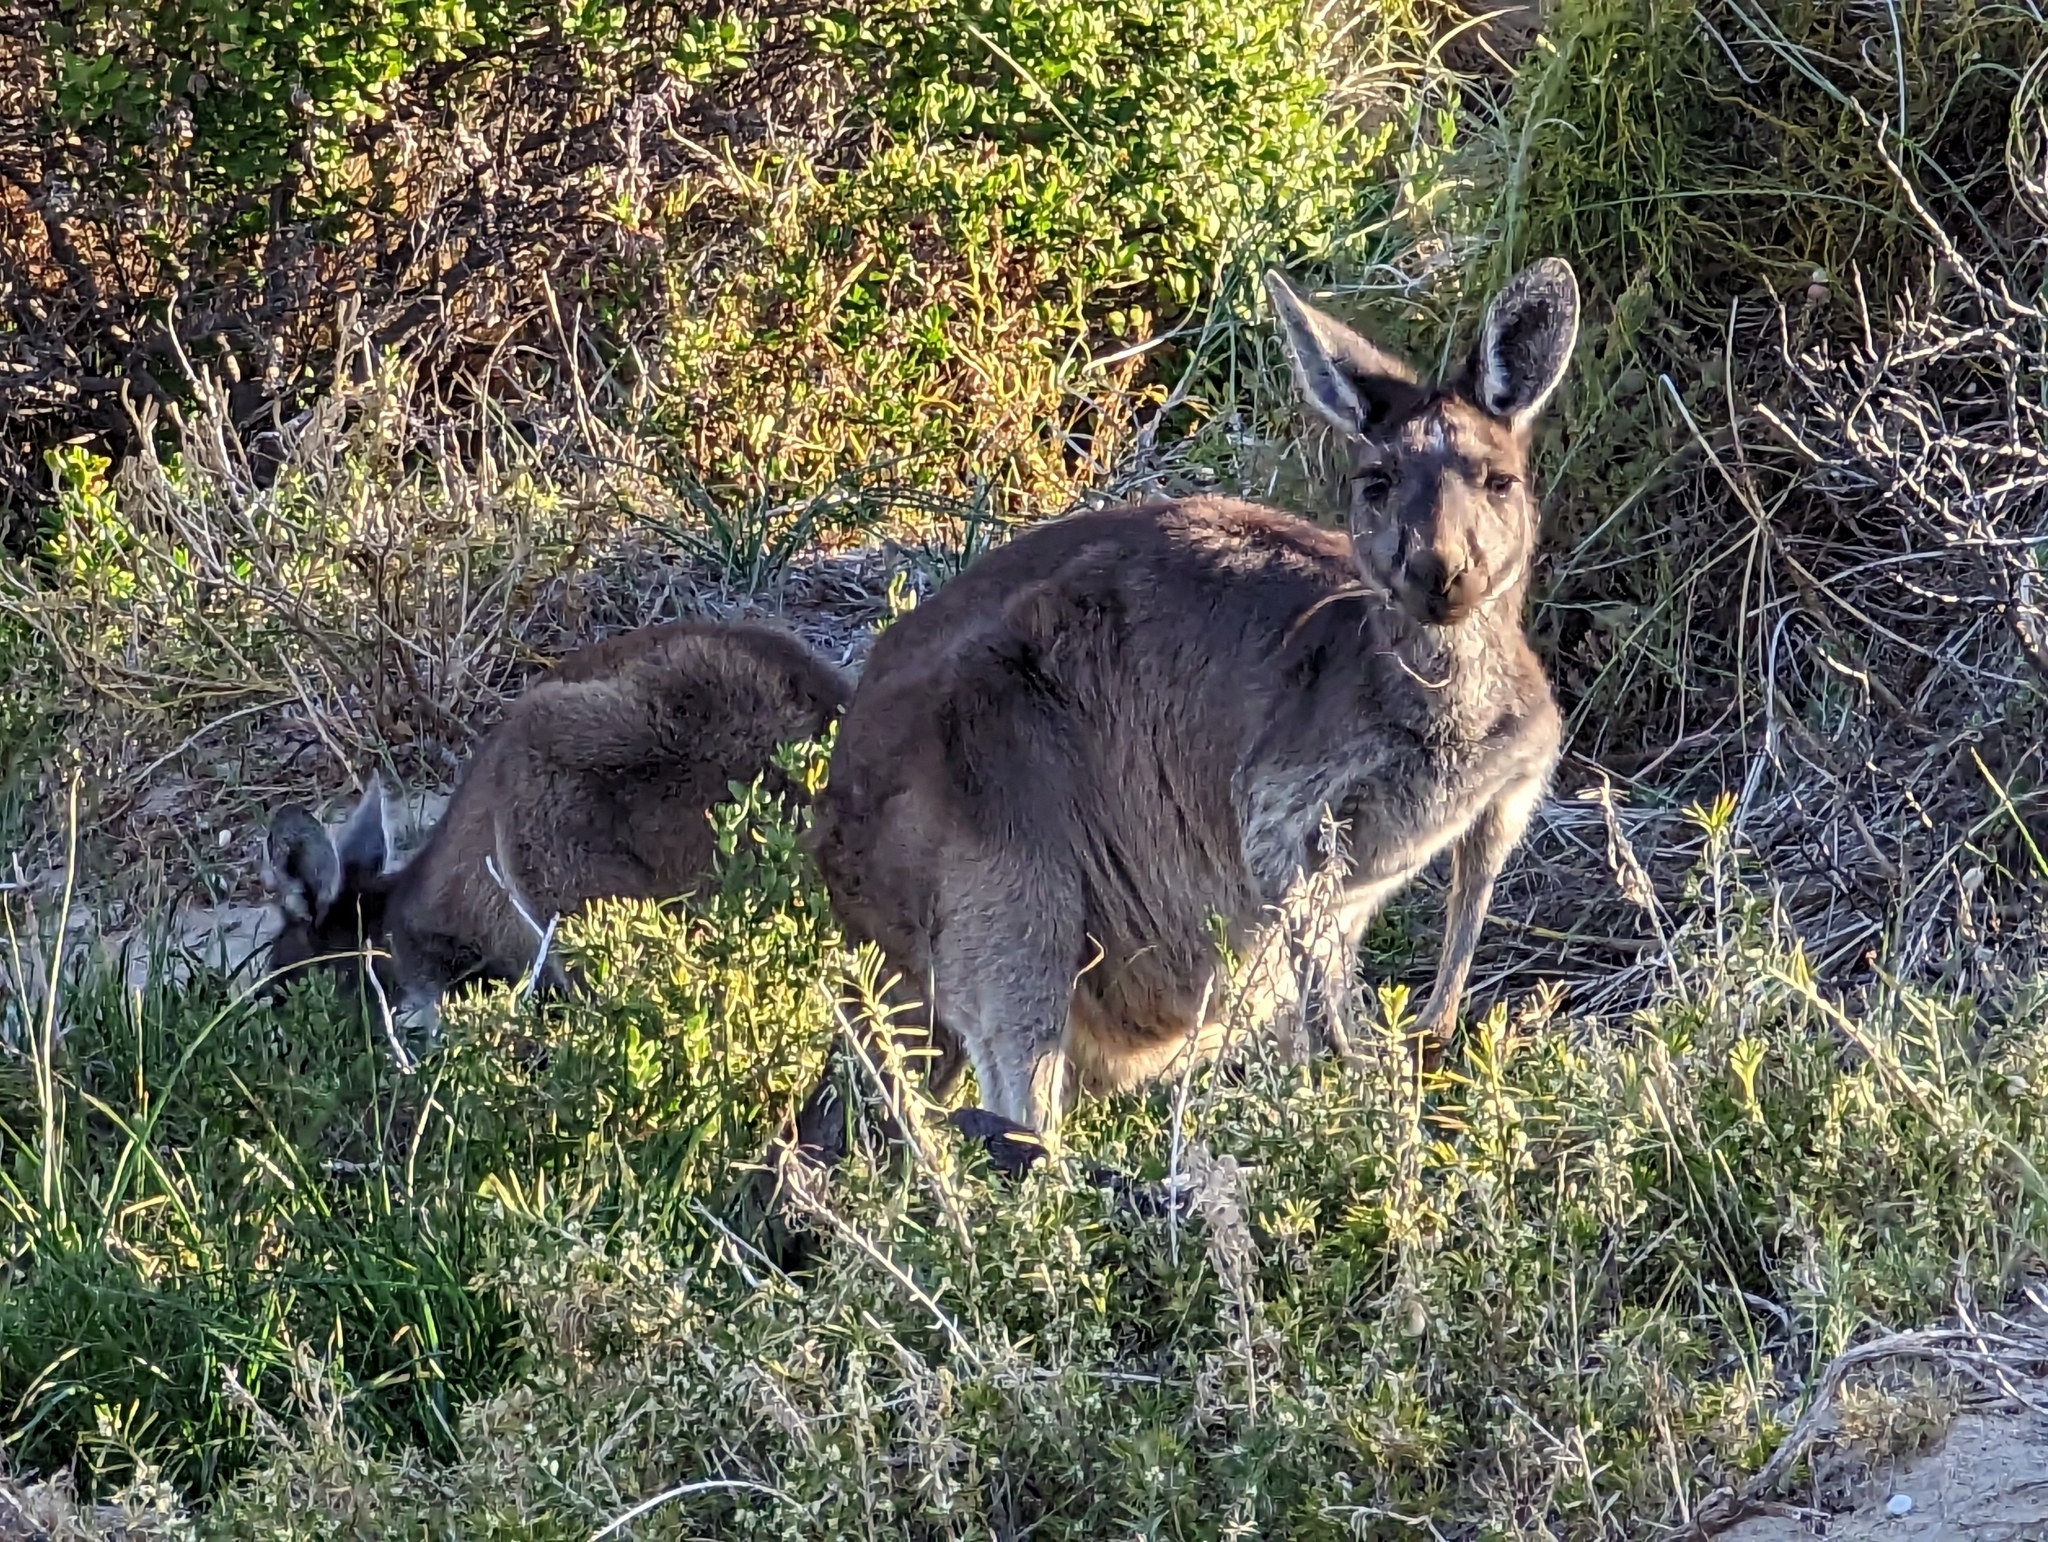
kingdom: Animalia
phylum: Chordata
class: Mammalia
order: Diprotodontia
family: Macropodidae
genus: Macropus
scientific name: Macropus fuliginosus
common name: Western grey kangaroo
